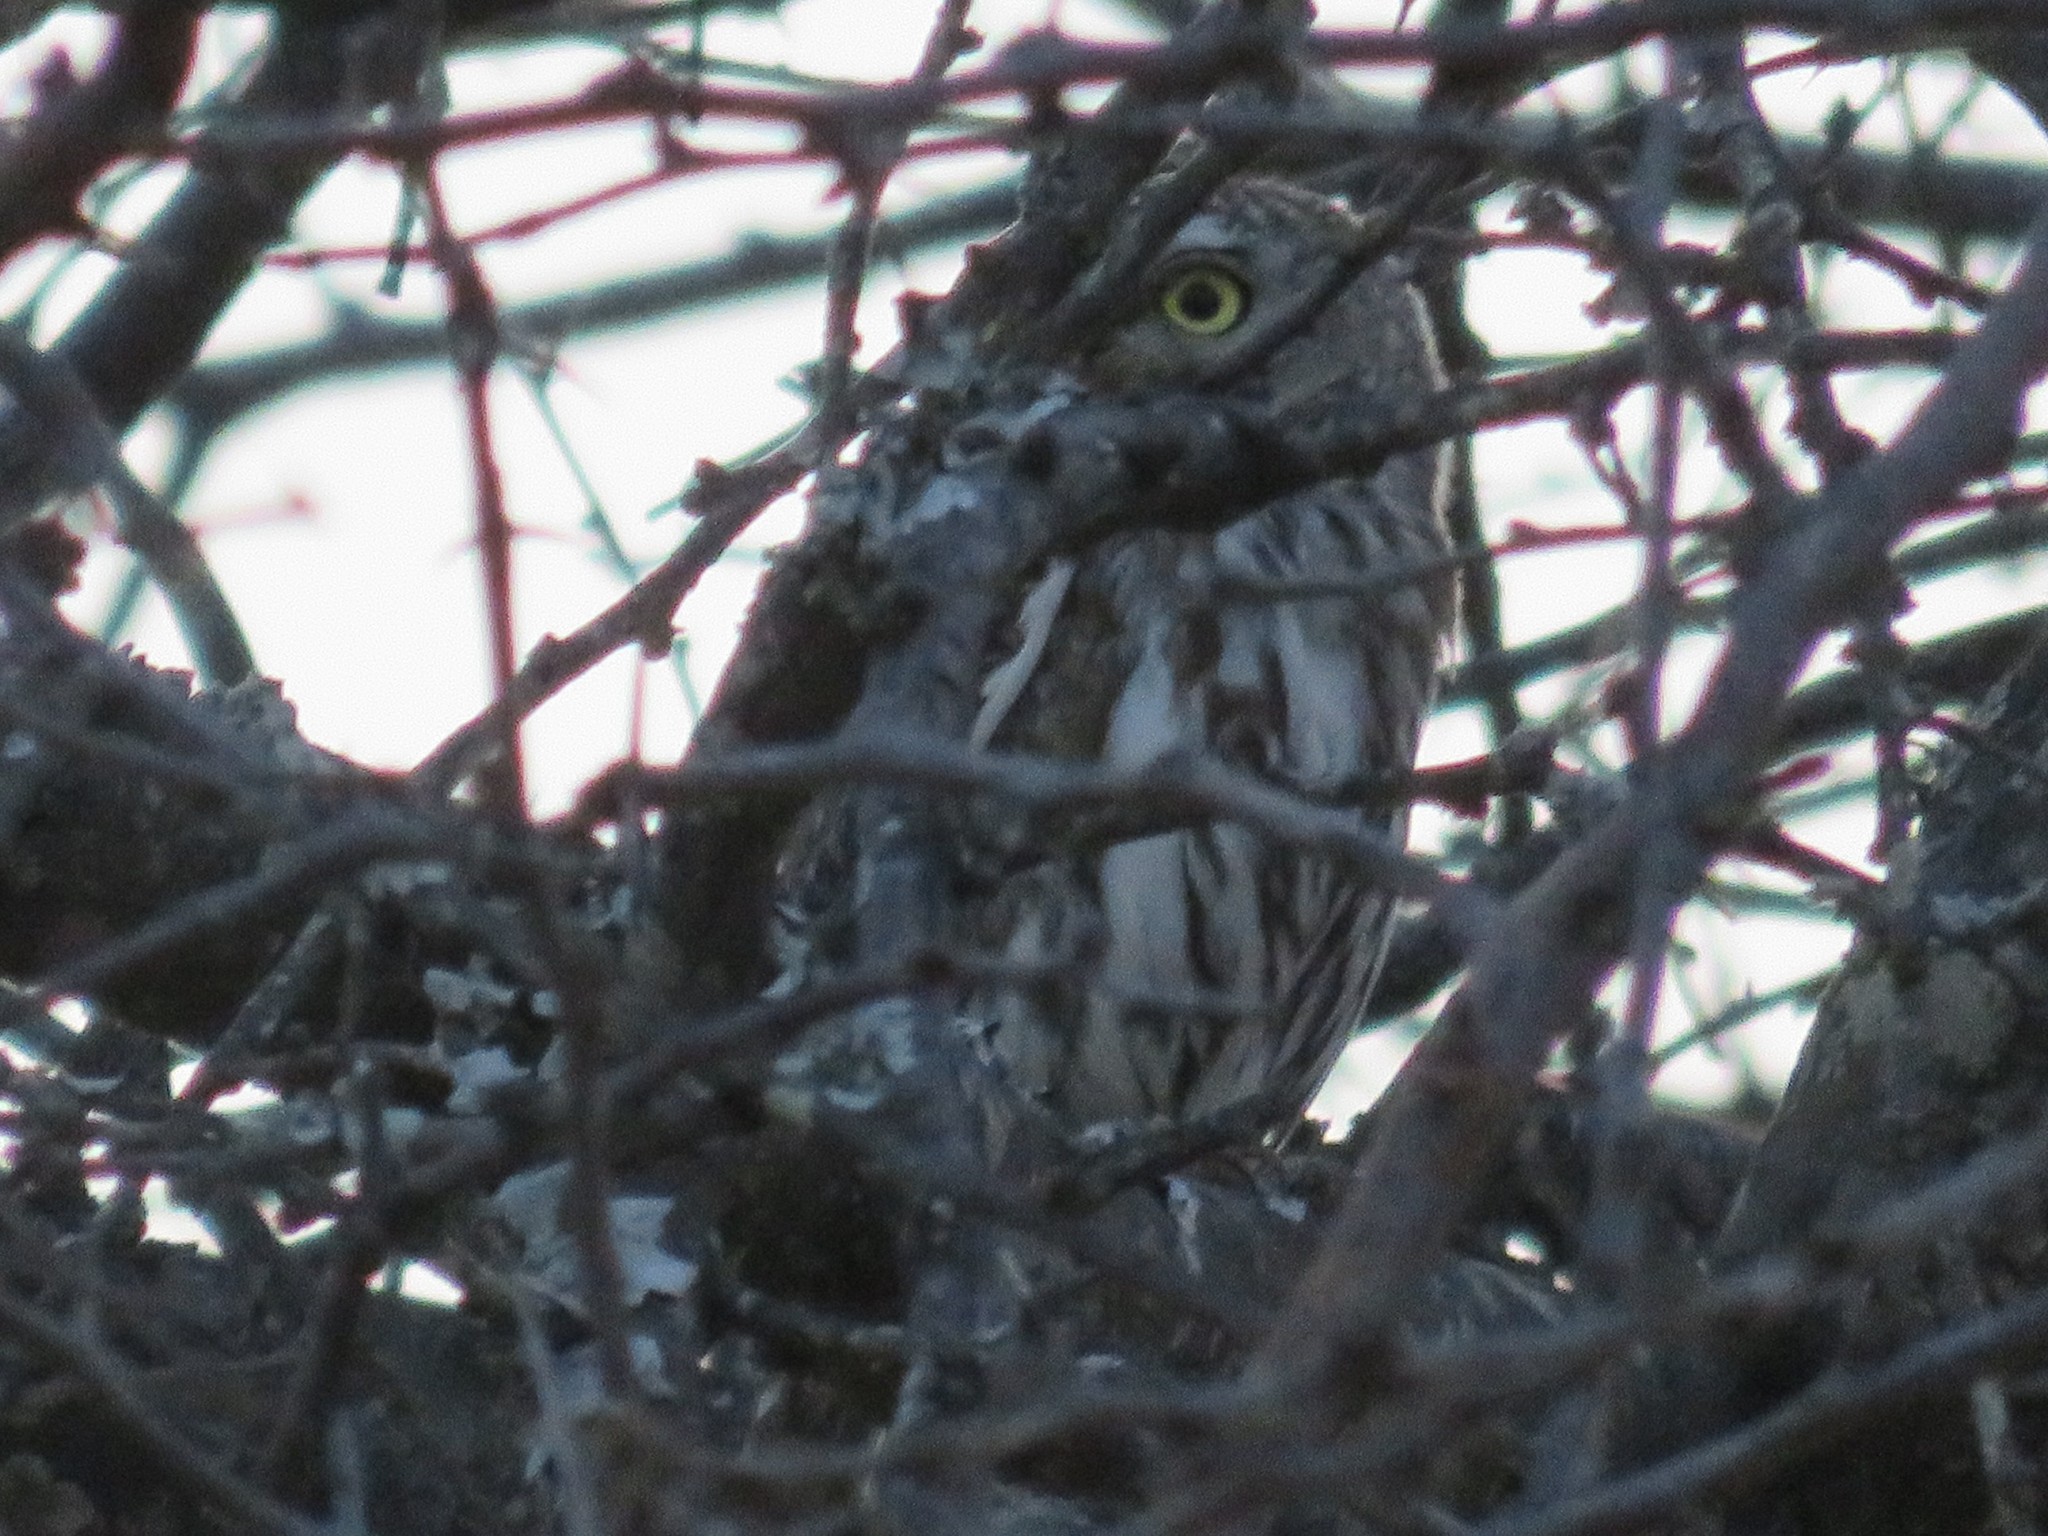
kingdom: Animalia
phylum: Chordata
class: Aves
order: Strigiformes
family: Strigidae
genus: Glaucidium
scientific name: Glaucidium perlatum
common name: Pearl-spotted owlet
